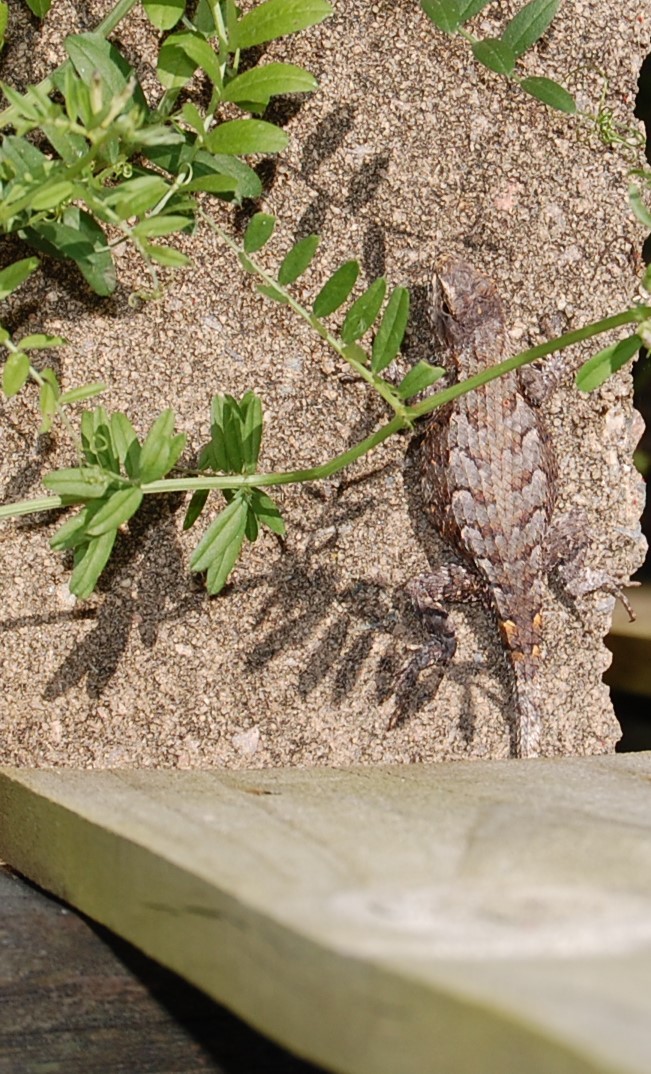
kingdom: Animalia
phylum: Chordata
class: Squamata
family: Phrynosomatidae
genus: Sceloporus
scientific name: Sceloporus undulatus
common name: Eastern fence lizard
